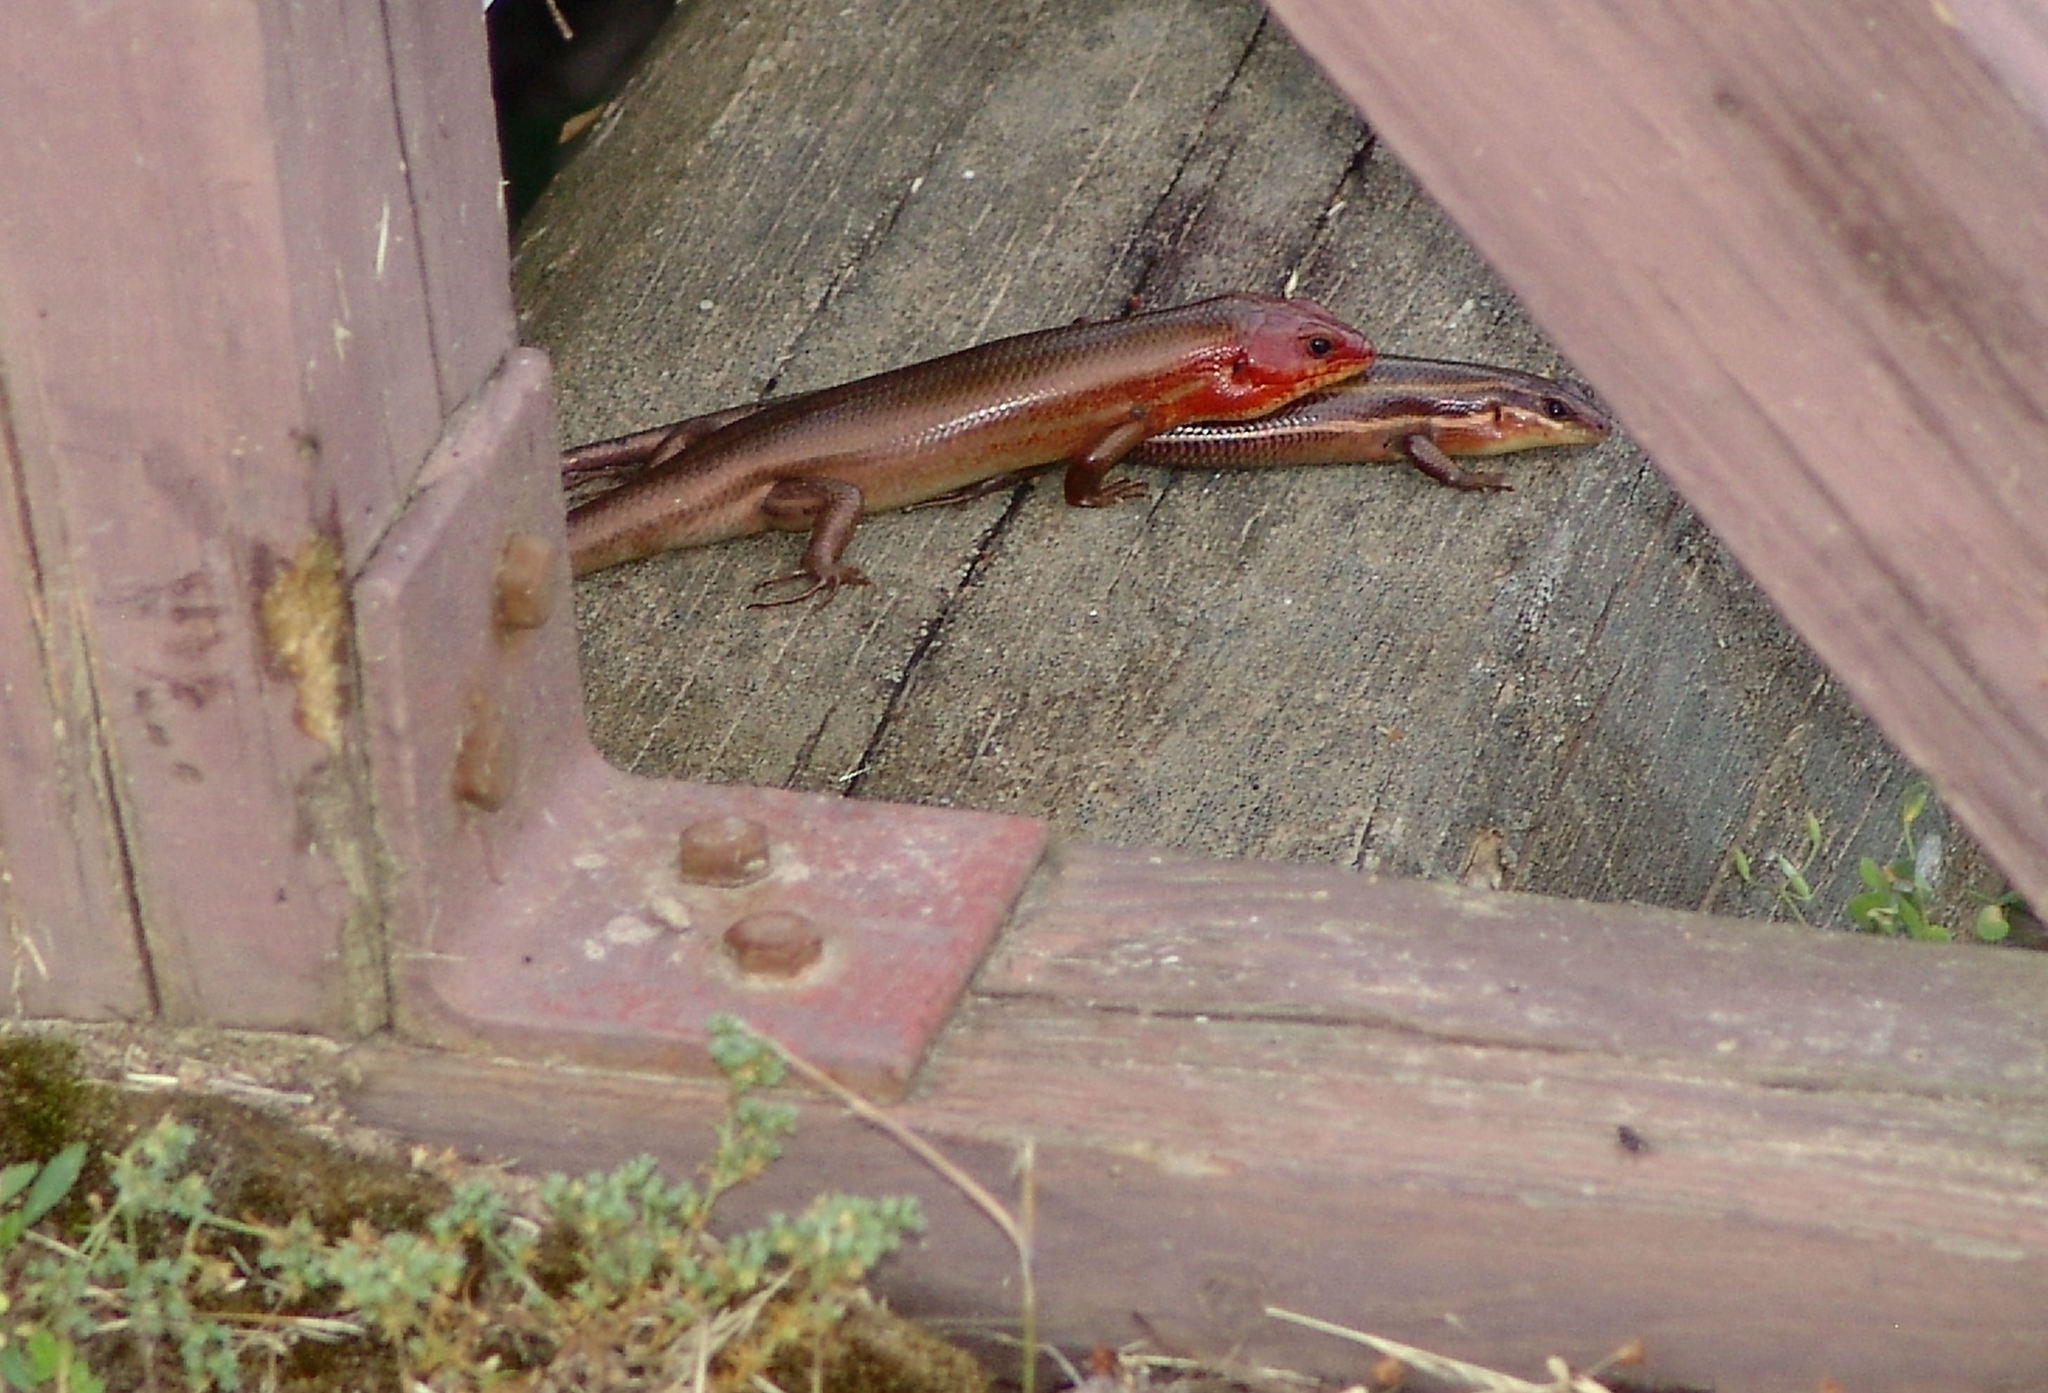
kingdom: Animalia
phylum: Chordata
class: Squamata
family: Scincidae
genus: Plestiodon
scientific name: Plestiodon laticeps
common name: Broadhead skink
